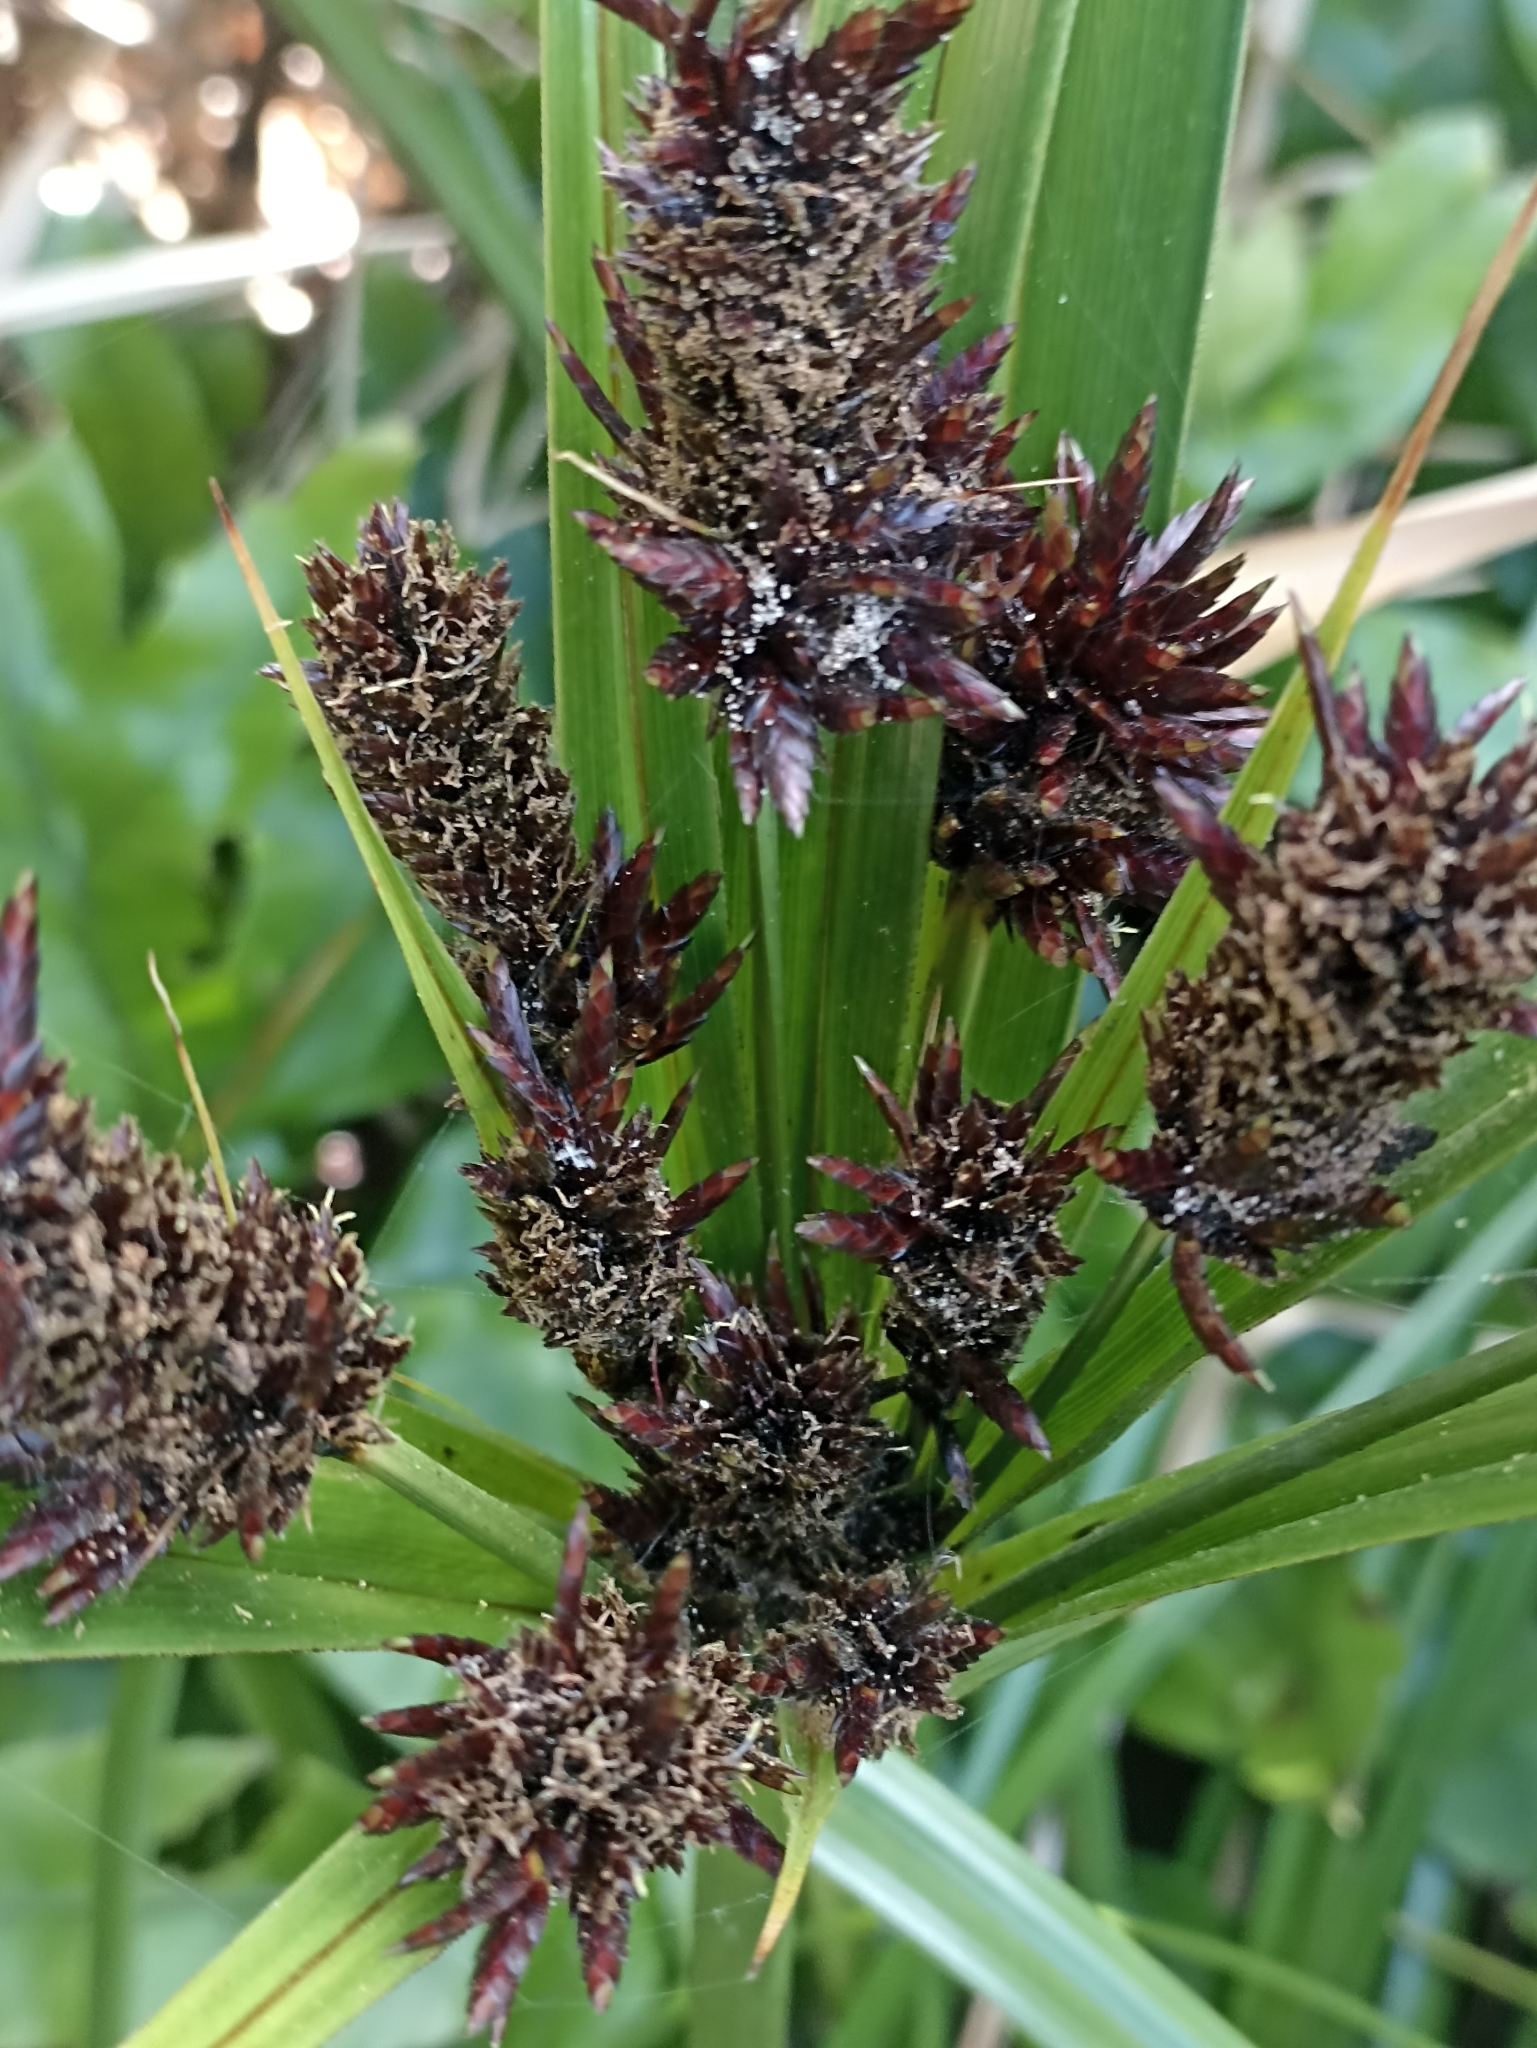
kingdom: Plantae
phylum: Tracheophyta
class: Liliopsida
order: Poales
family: Cyperaceae
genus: Cyperus
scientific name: Cyperus ustulatus
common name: Giant umbrella-sedge
